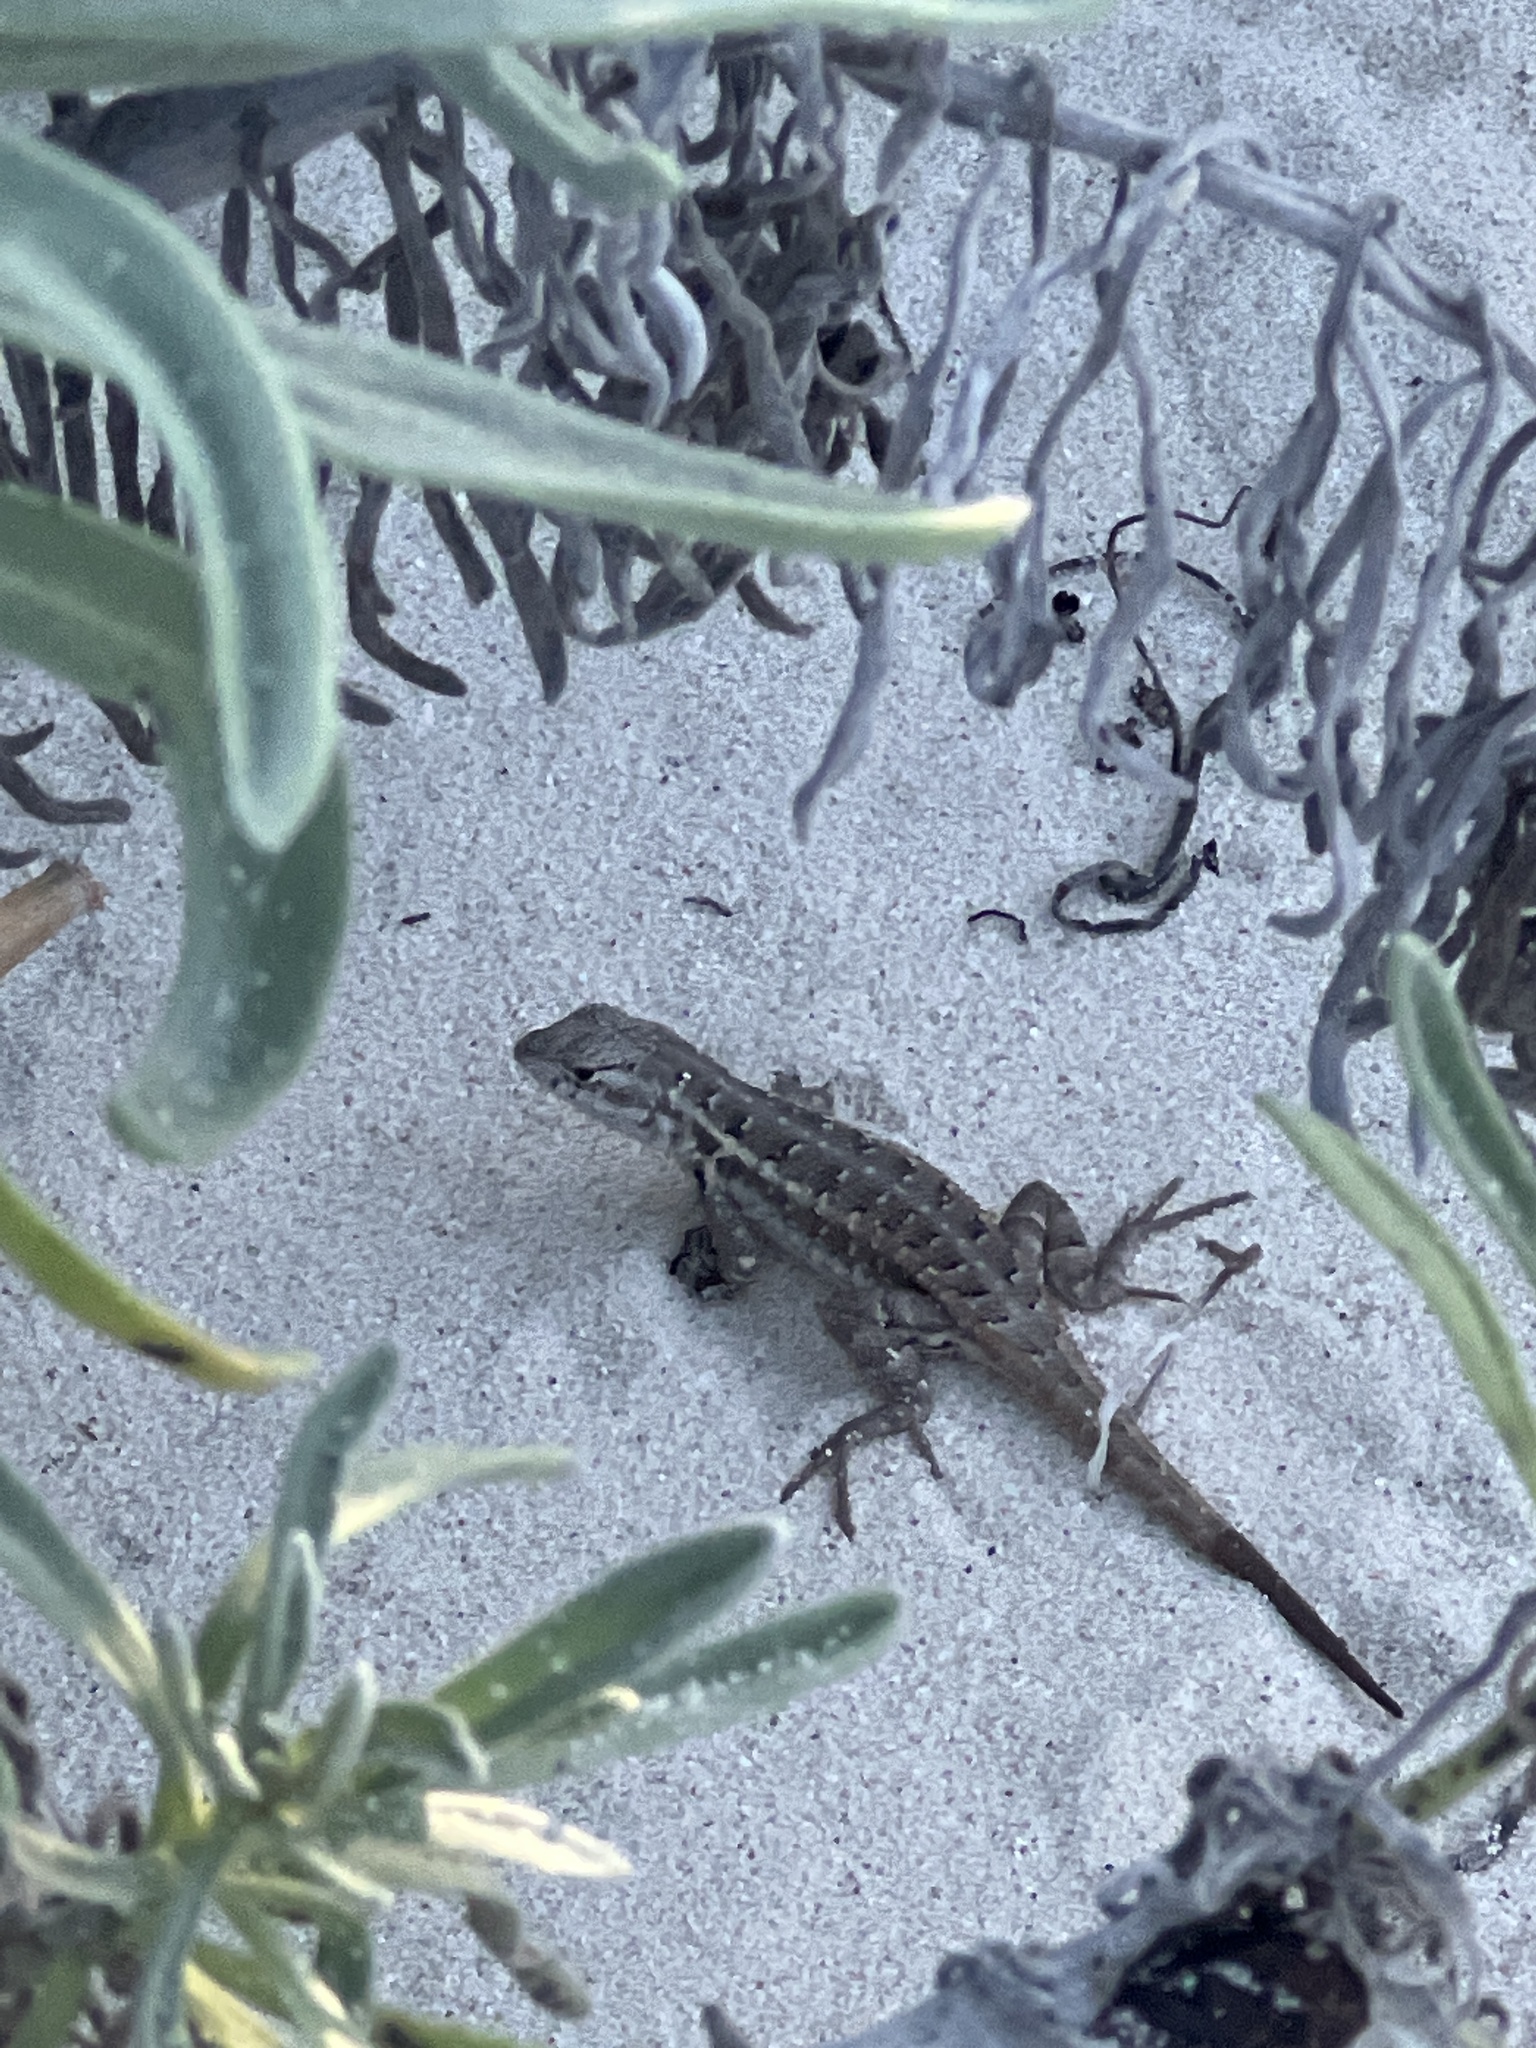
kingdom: Animalia
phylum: Chordata
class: Squamata
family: Phrynosomatidae
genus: Sceloporus
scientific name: Sceloporus cozumelae
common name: Cozumel spiny lizard
